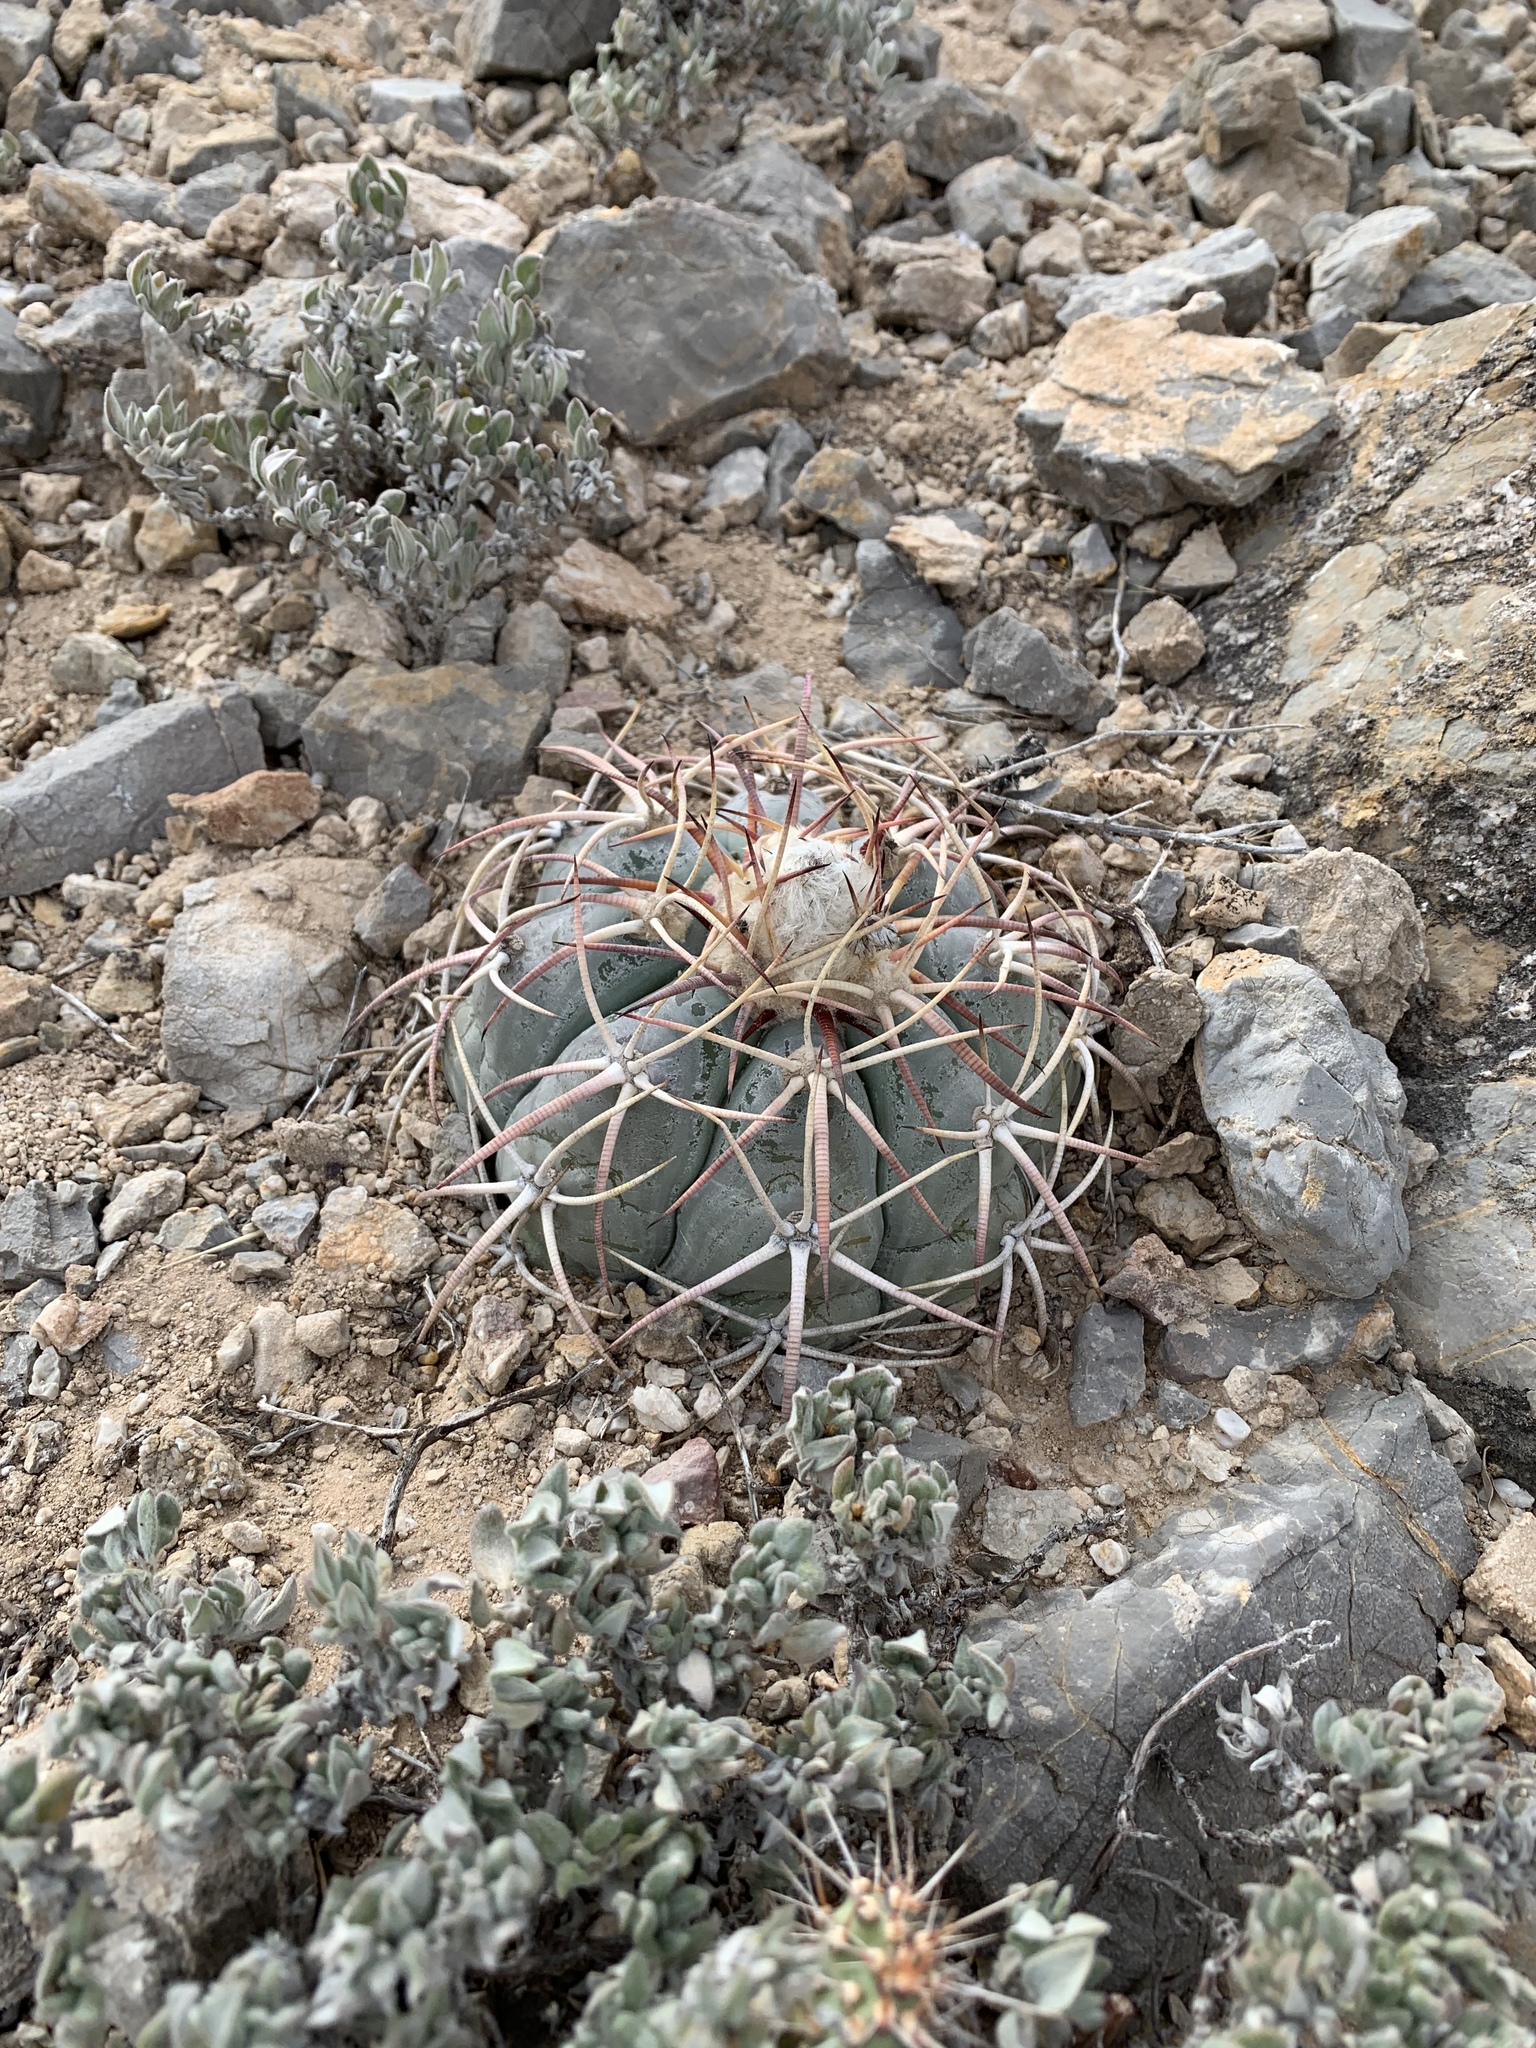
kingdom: Plantae
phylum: Tracheophyta
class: Magnoliopsida
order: Caryophyllales
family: Cactaceae
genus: Echinocactus
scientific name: Echinocactus horizonthalonius
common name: Devilshead
